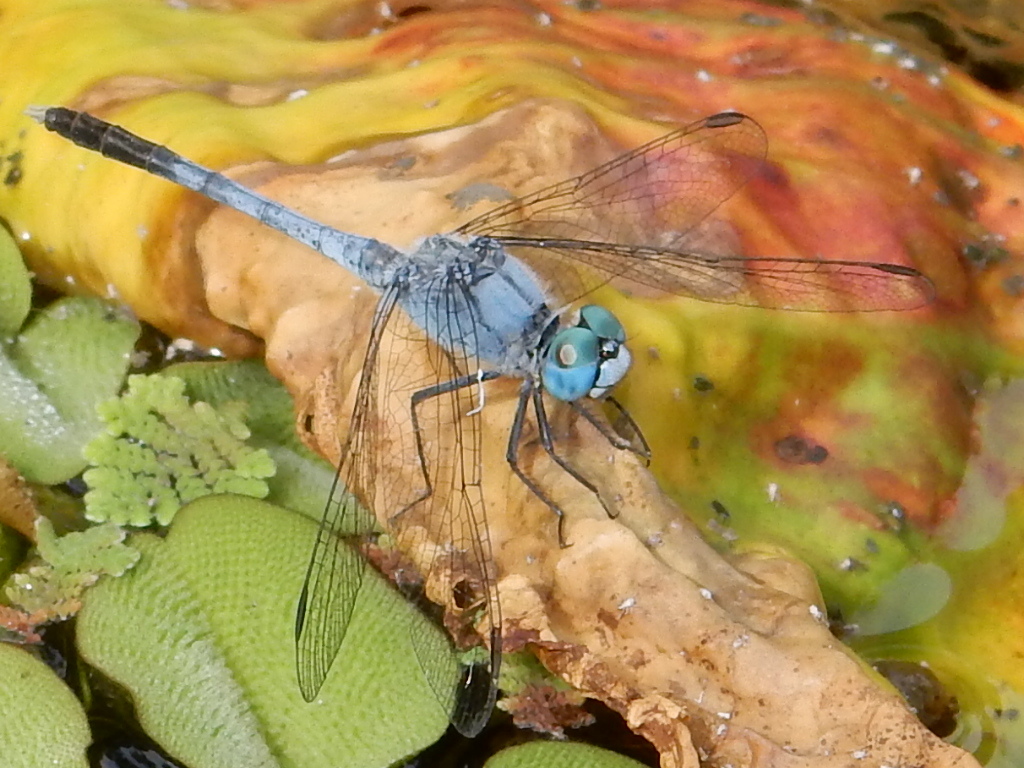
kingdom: Animalia
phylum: Arthropoda
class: Insecta
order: Odonata
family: Libellulidae
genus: Diplacodes
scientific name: Diplacodes trivialis
